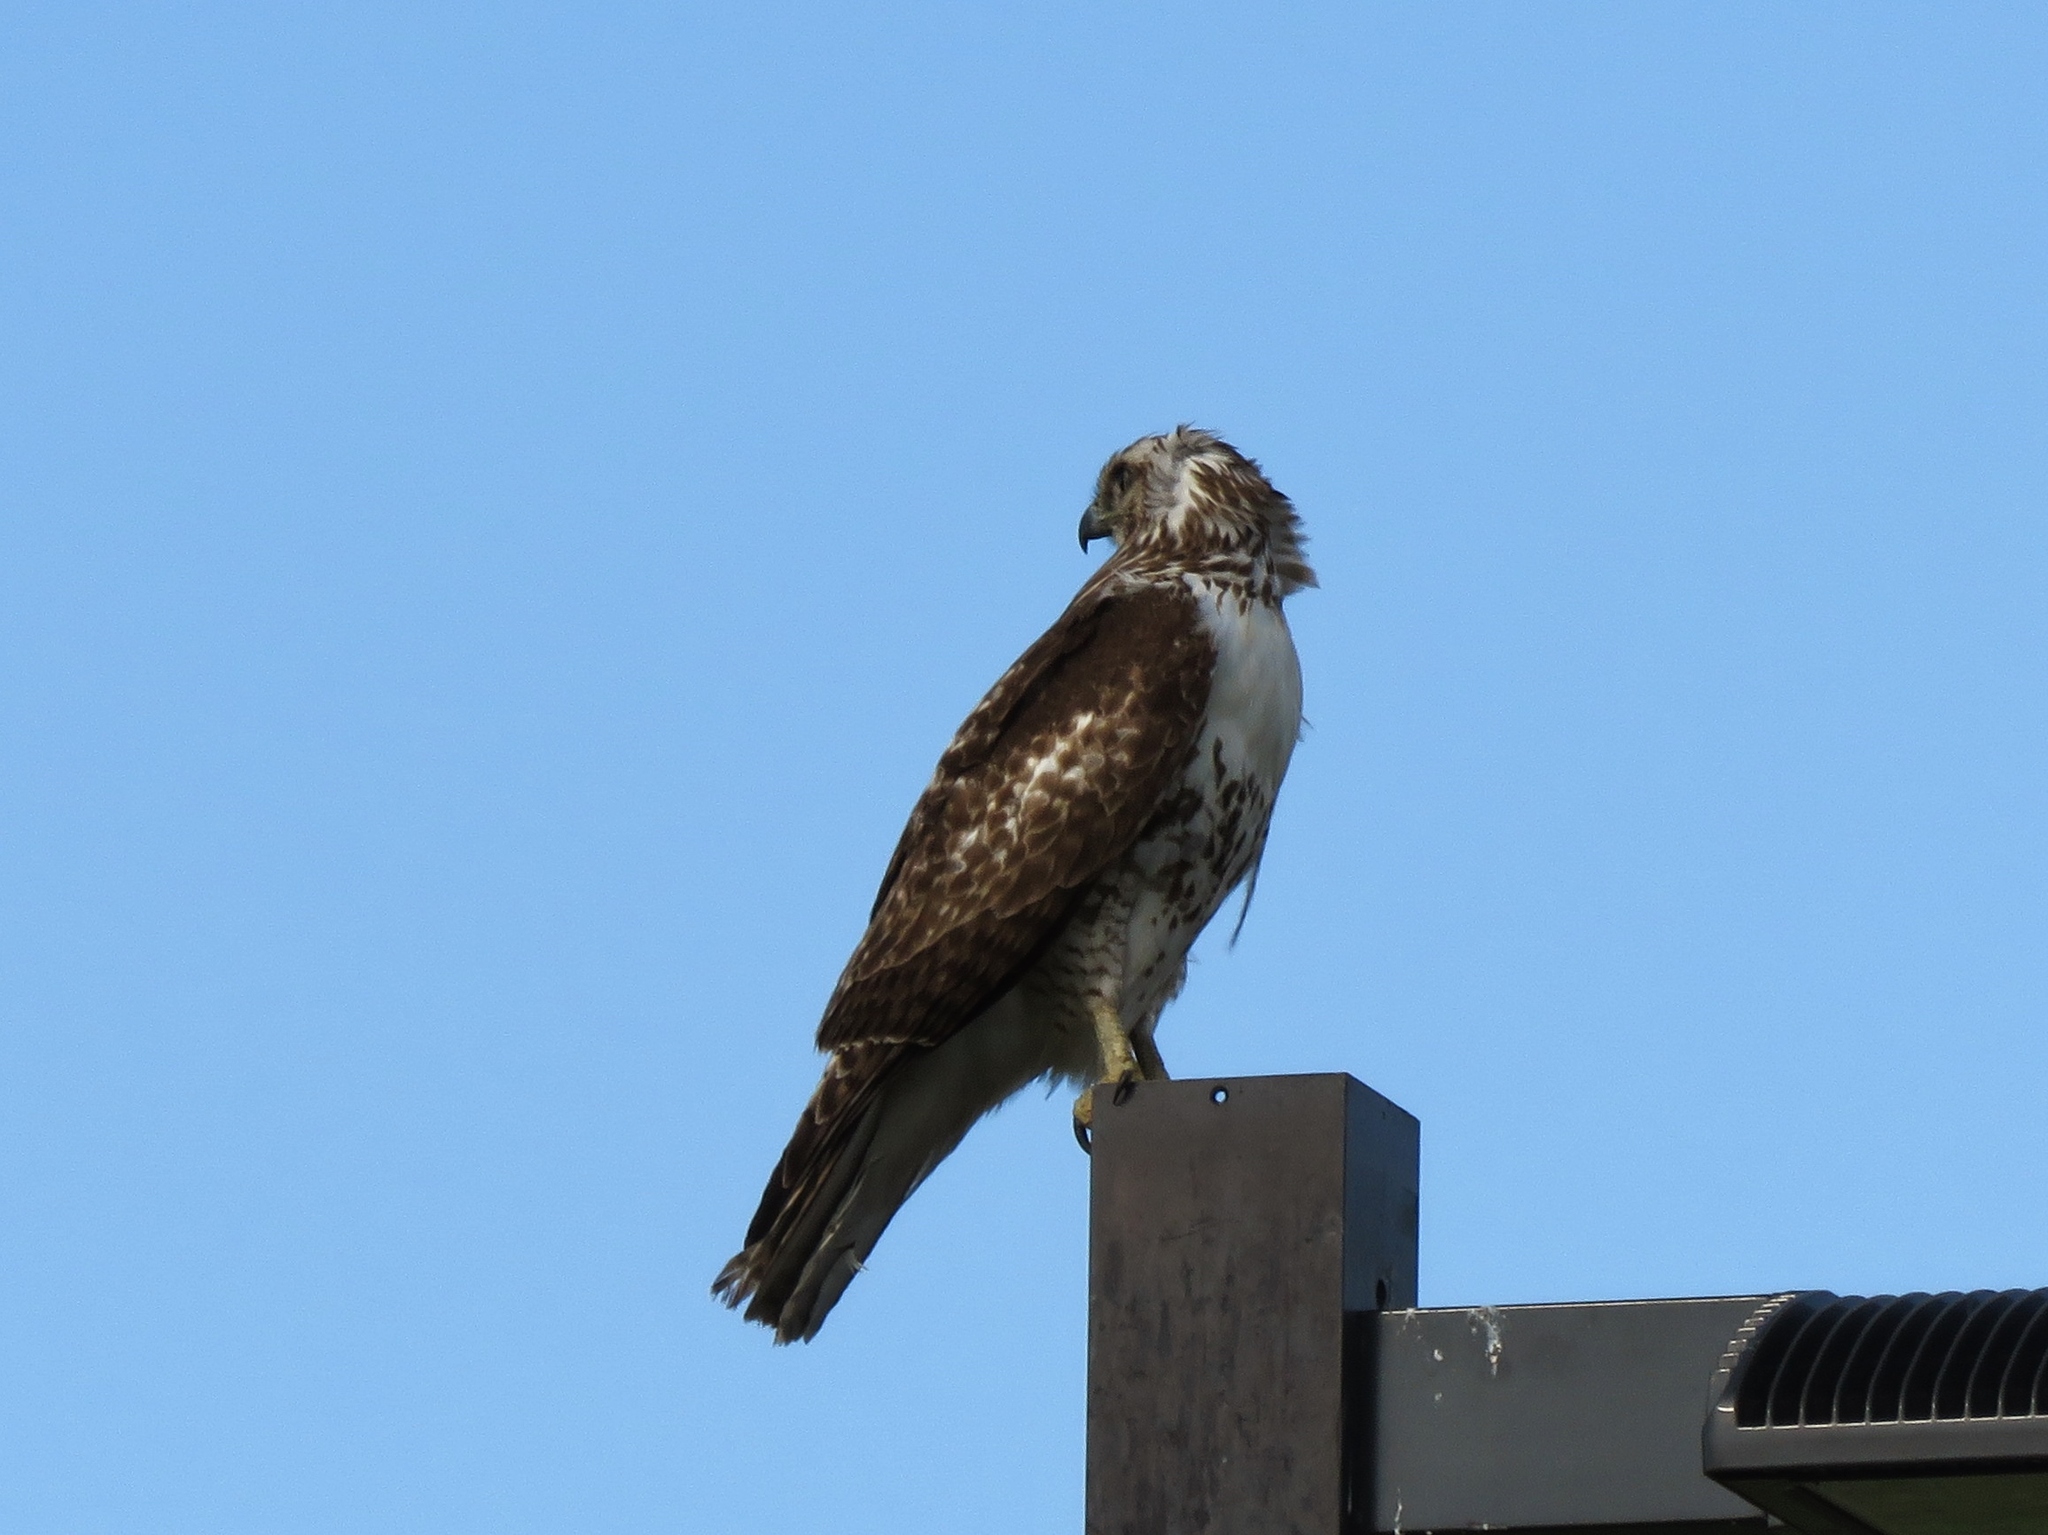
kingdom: Animalia
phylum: Chordata
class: Aves
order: Accipitriformes
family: Accipitridae
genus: Buteo
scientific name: Buteo jamaicensis
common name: Red-tailed hawk
